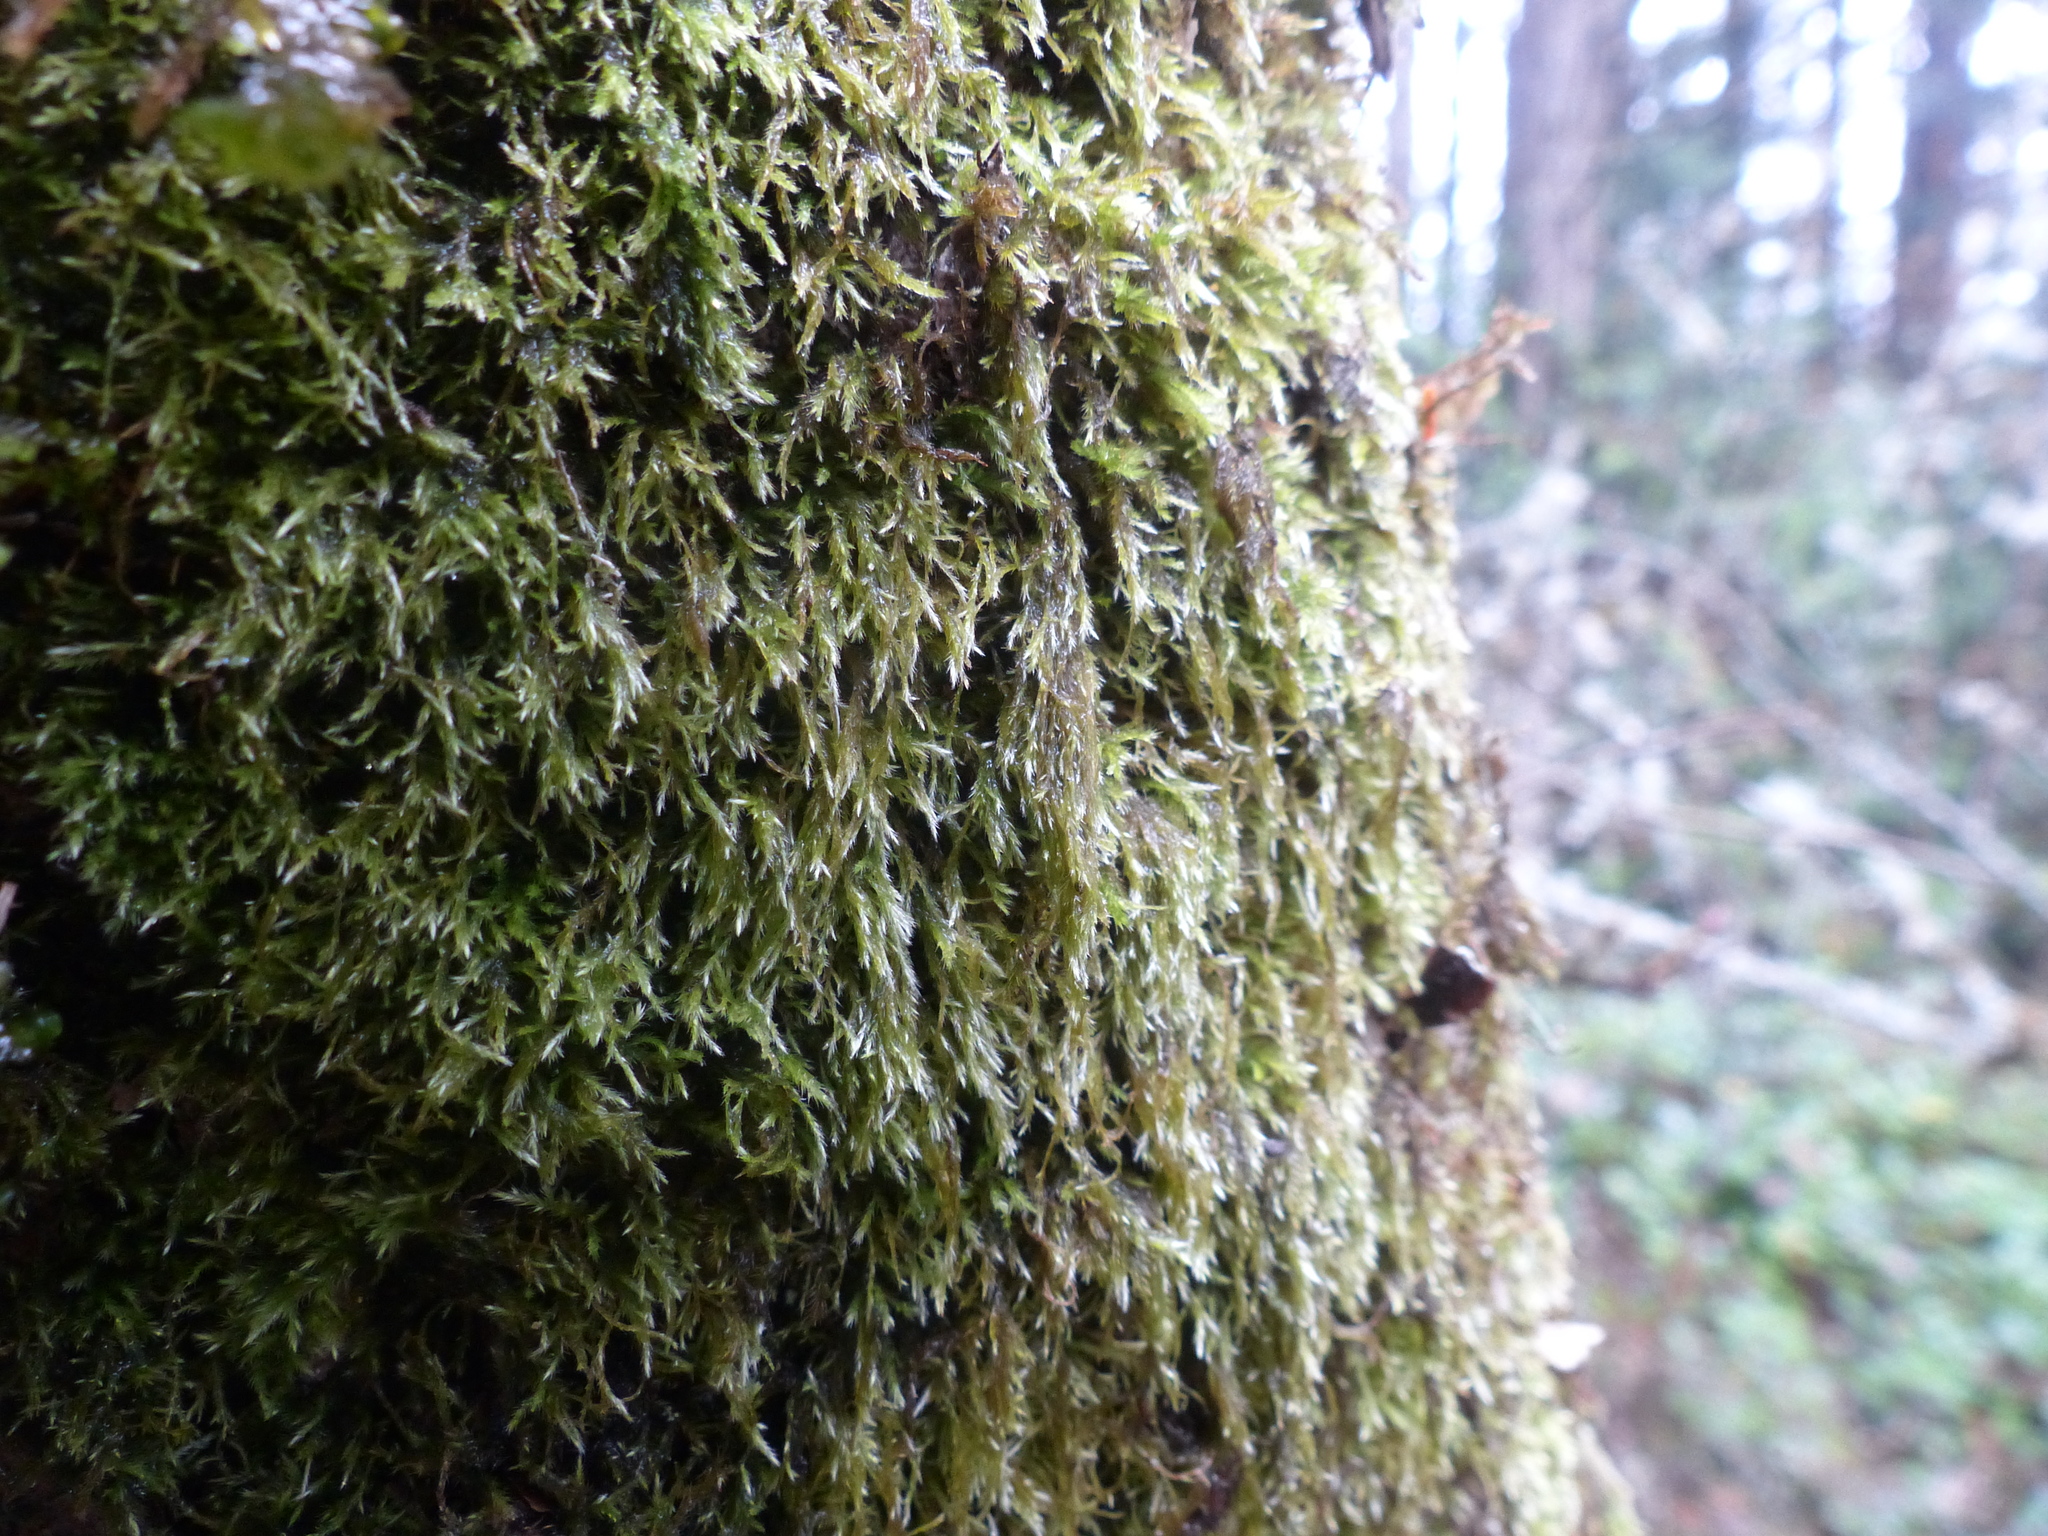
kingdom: Plantae
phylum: Bryophyta
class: Bryopsida
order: Hypnales
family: Lembophyllaceae
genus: Pseudisothecium
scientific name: Pseudisothecium stoloniferum
